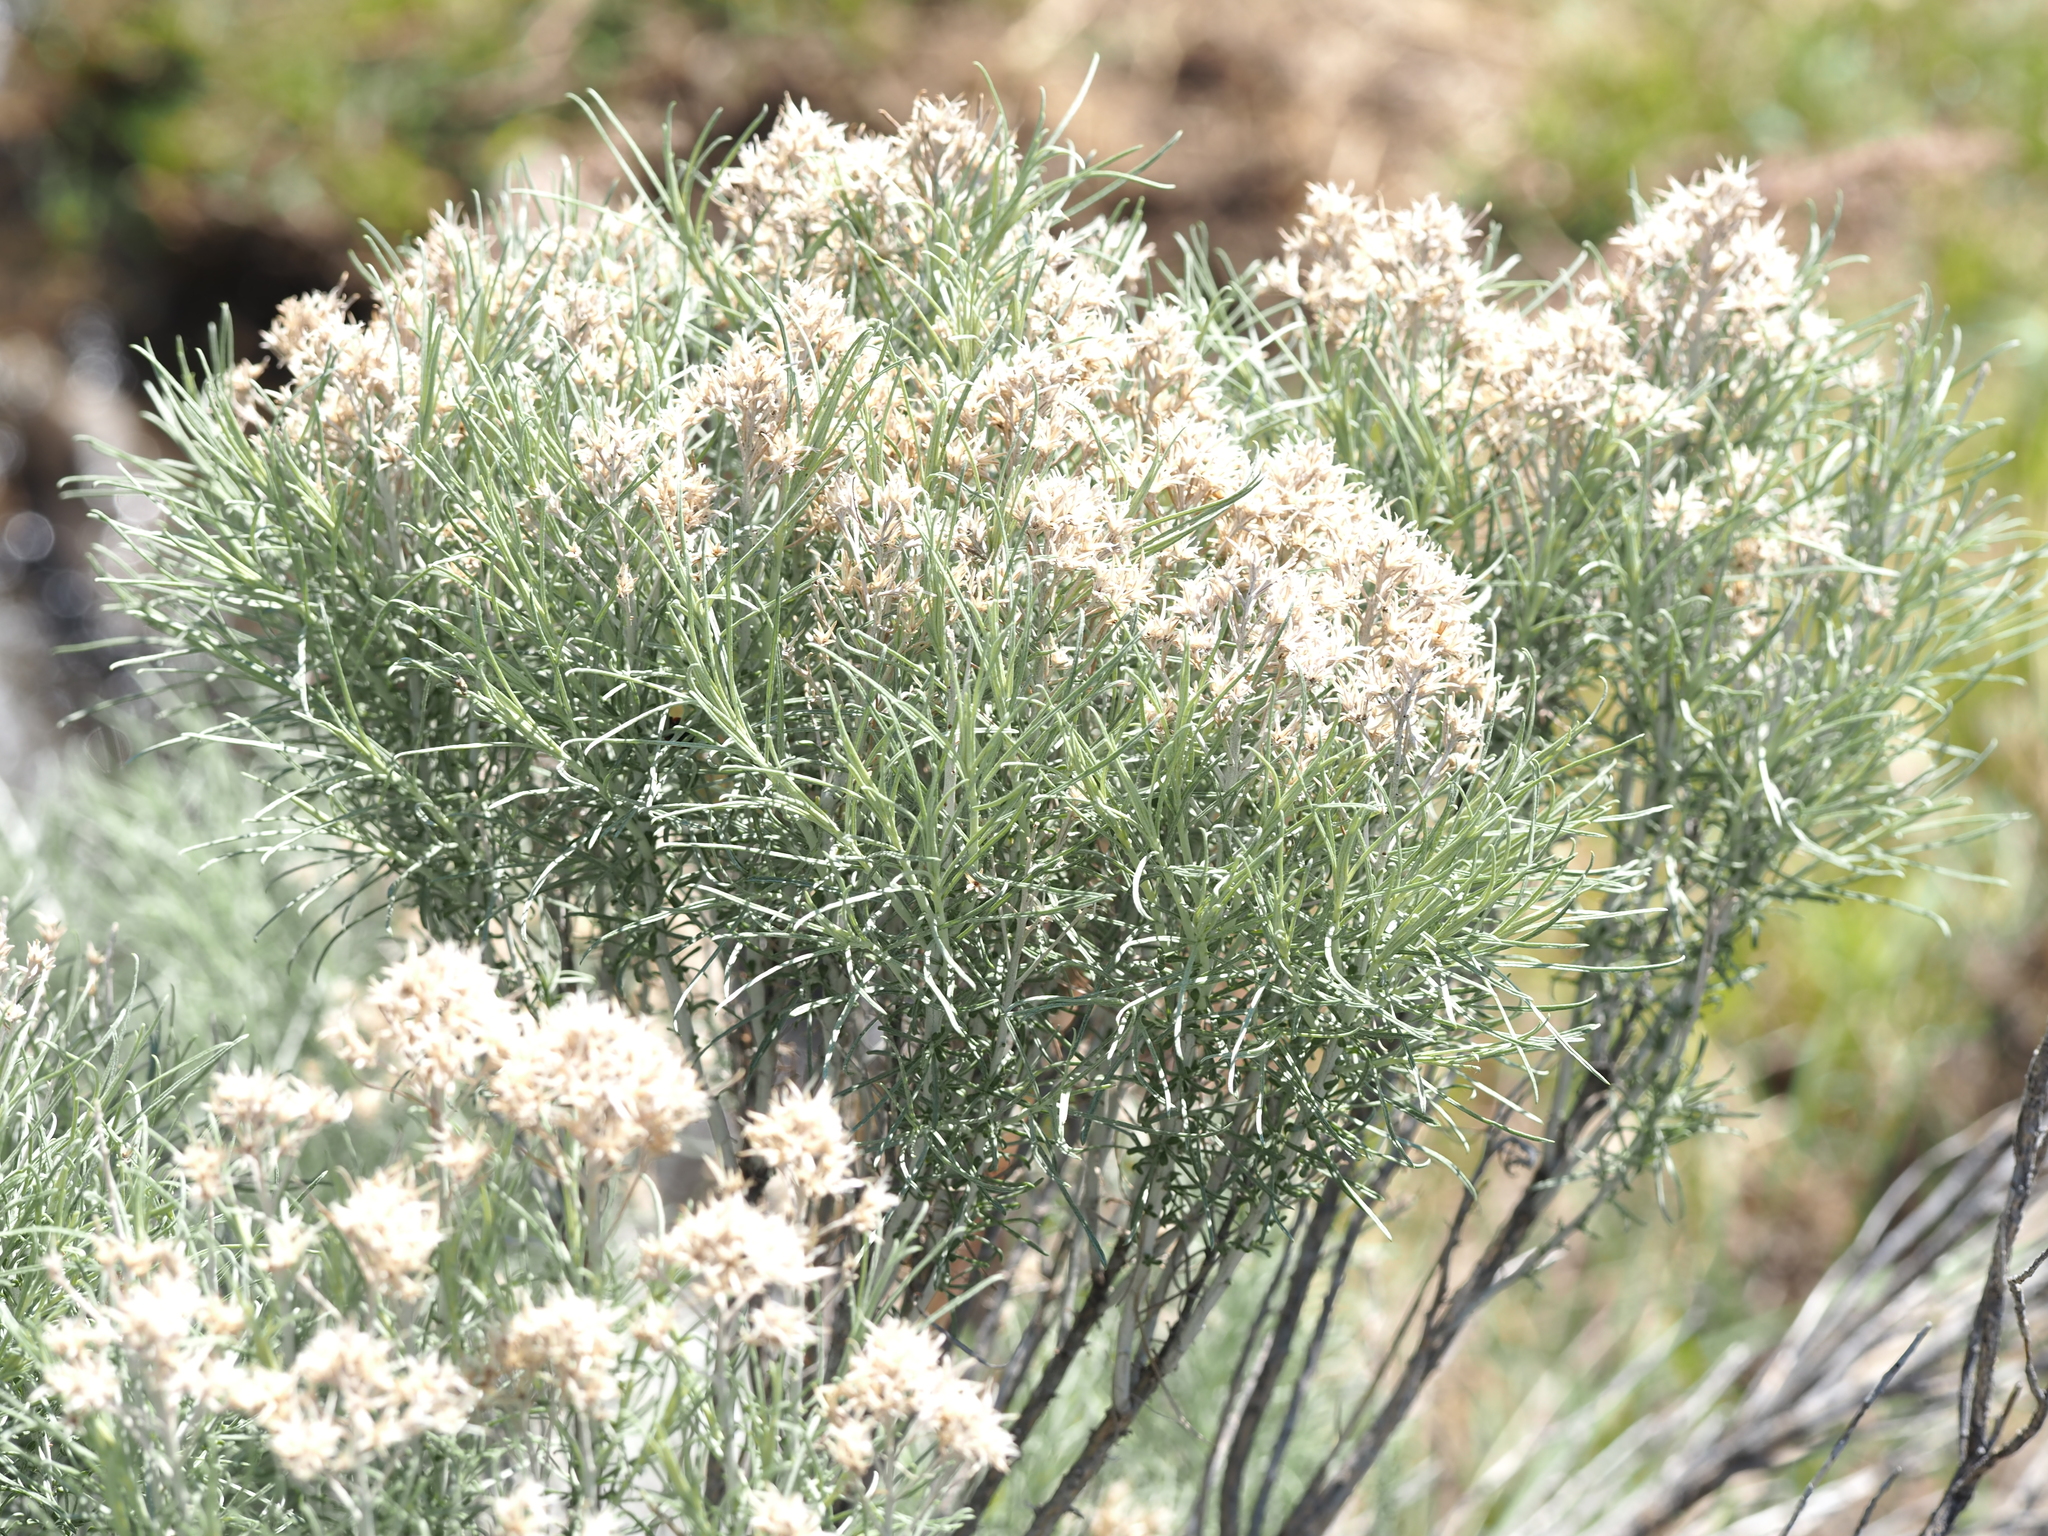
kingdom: Plantae
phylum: Tracheophyta
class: Magnoliopsida
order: Asterales
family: Asteraceae
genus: Ericameria
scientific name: Ericameria nauseosa
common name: Rubber rabbitbrush
